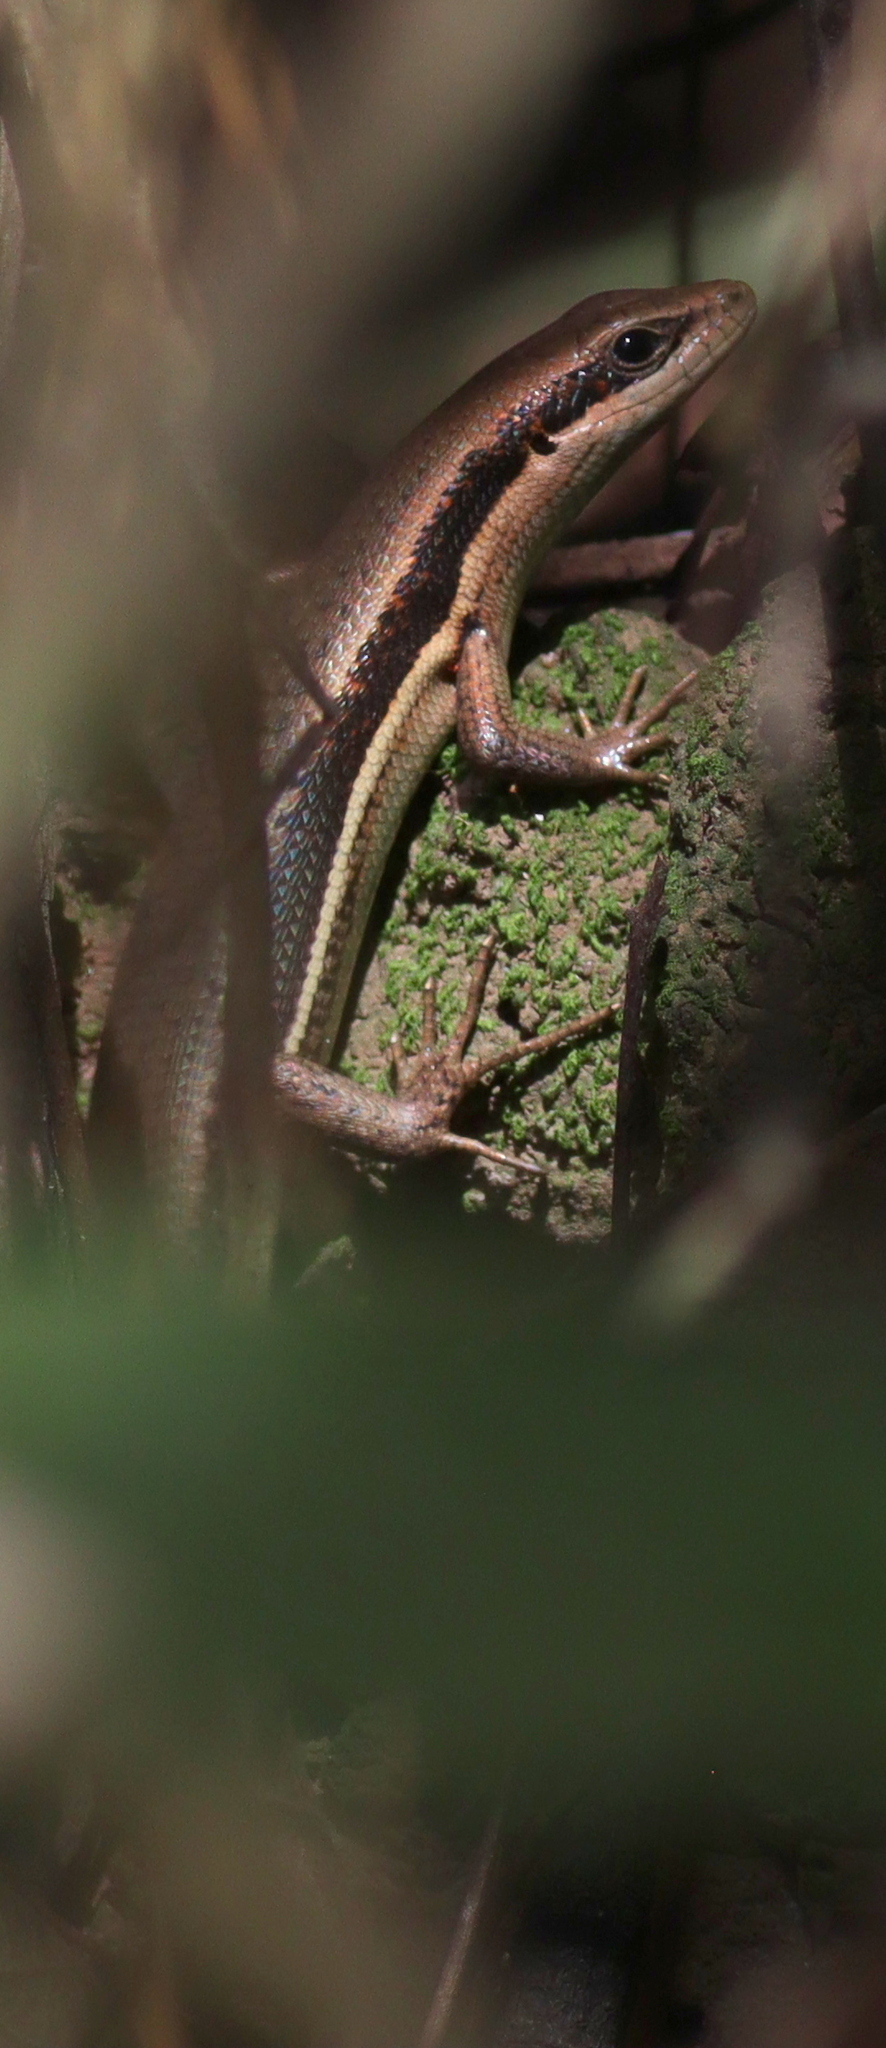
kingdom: Animalia
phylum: Chordata
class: Squamata
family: Scincidae
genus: Trachylepis
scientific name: Trachylepis affinis
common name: Senegal mabuya
